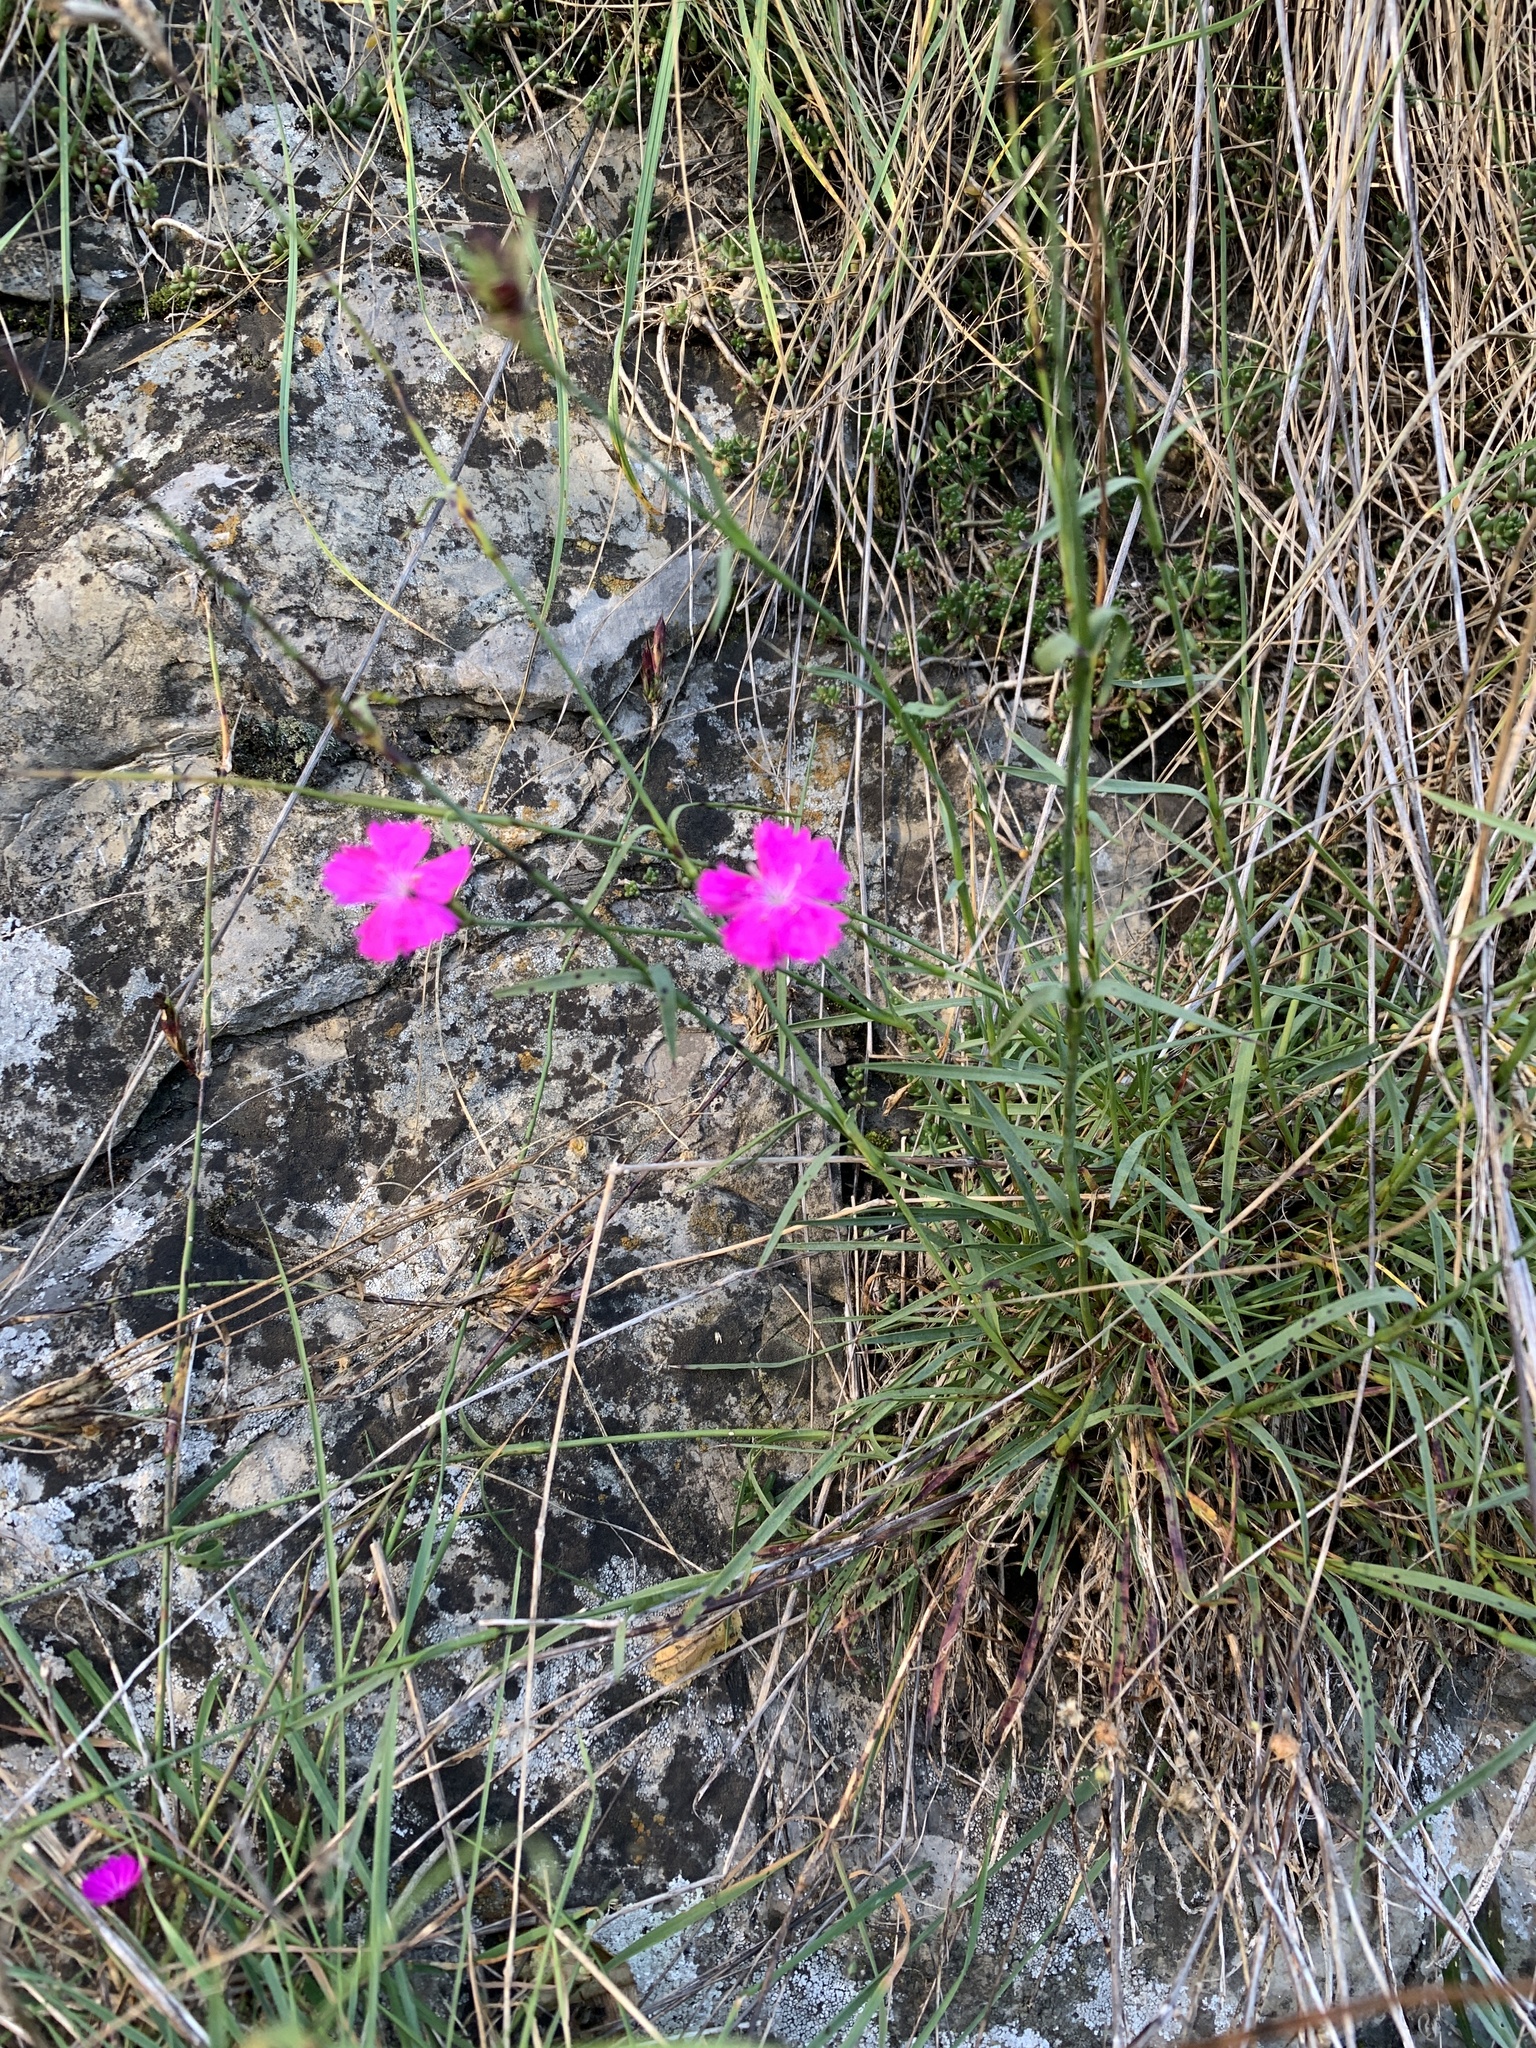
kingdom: Plantae
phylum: Tracheophyta
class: Magnoliopsida
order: Caryophyllales
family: Caryophyllaceae
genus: Dianthus
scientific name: Dianthus carthusianorum
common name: Carthusian pink
